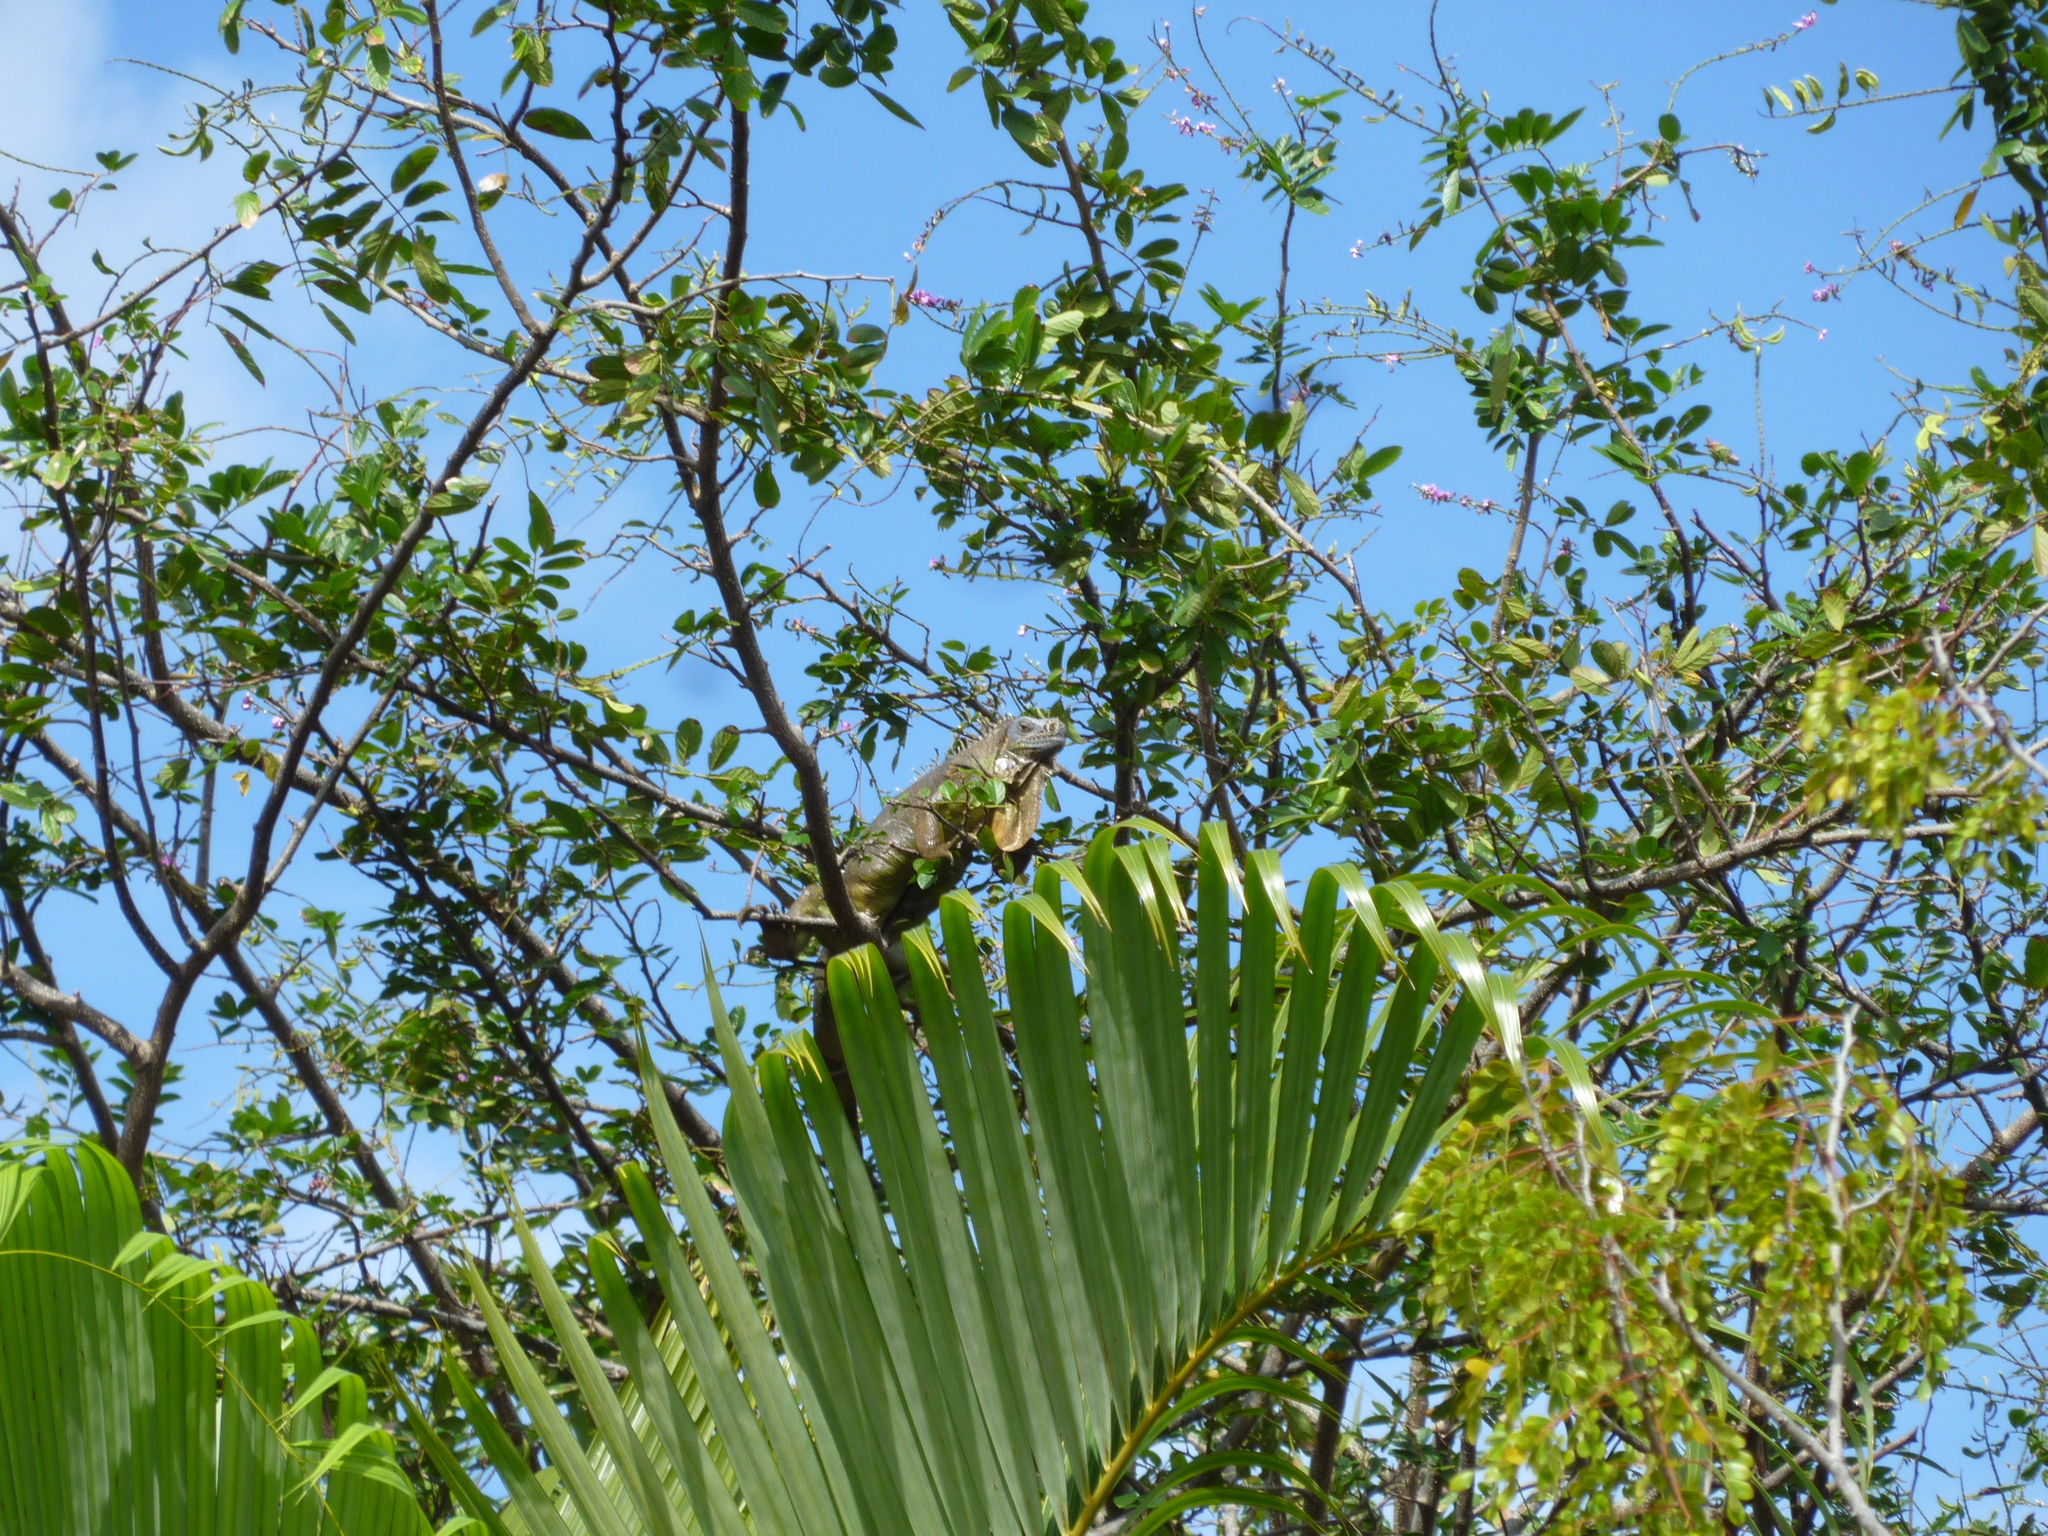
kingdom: Animalia
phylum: Chordata
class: Squamata
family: Iguanidae
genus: Iguana
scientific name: Iguana iguana
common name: Green iguana
